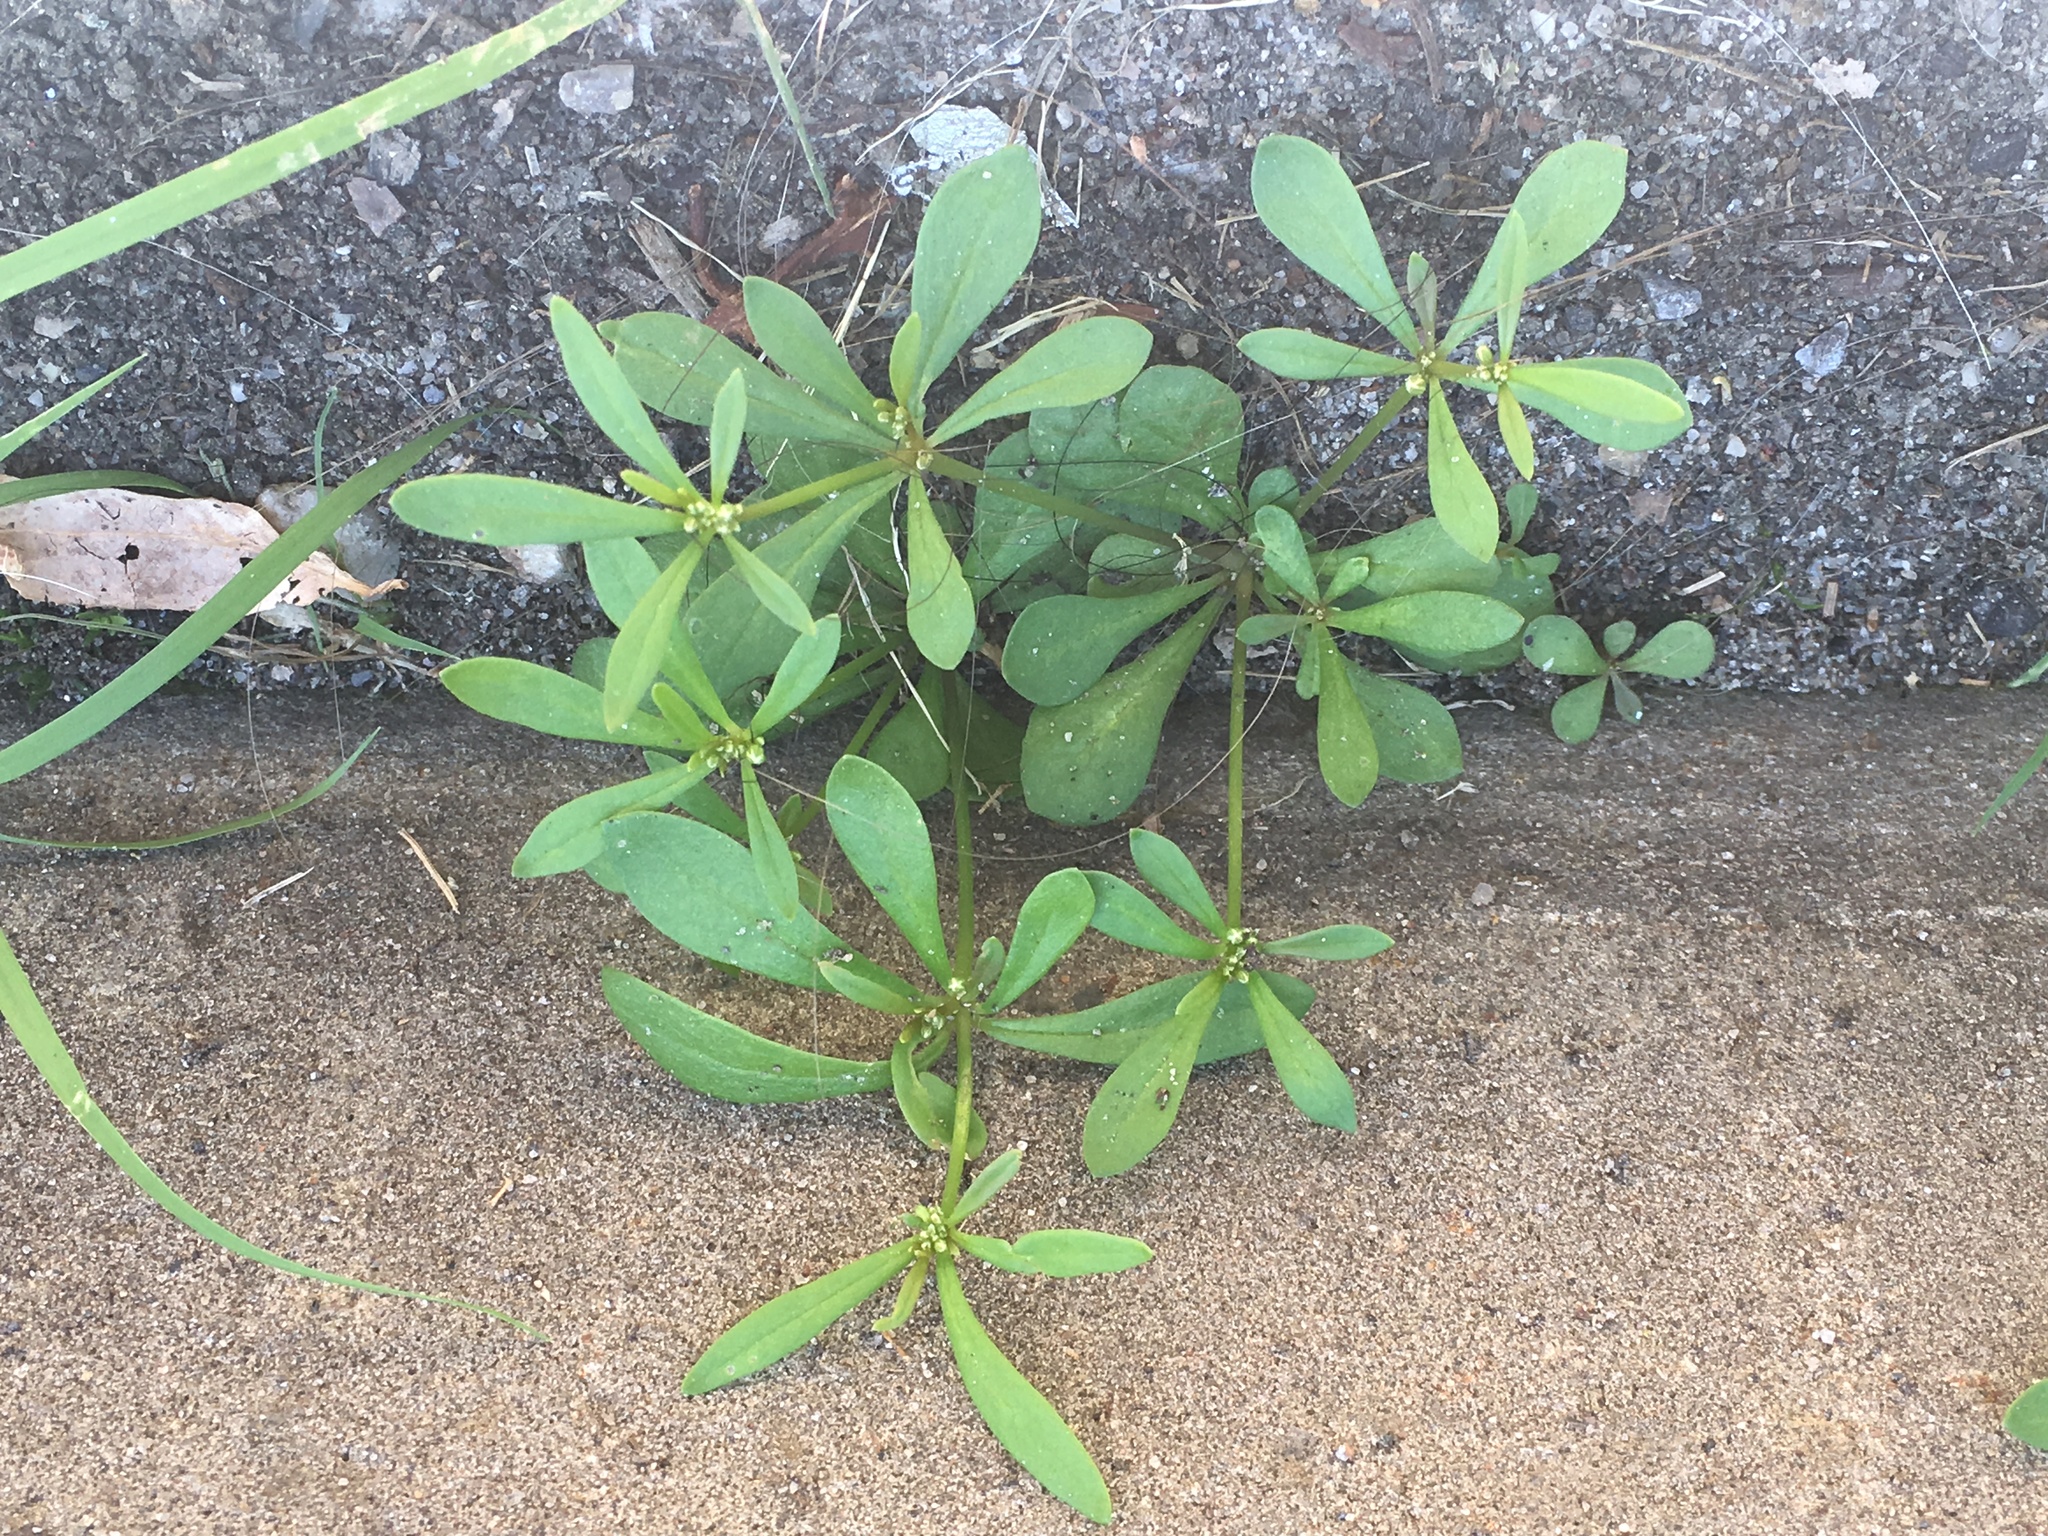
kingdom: Plantae
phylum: Tracheophyta
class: Magnoliopsida
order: Caryophyllales
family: Molluginaceae
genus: Mollugo
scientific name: Mollugo verticillata
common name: Green carpetweed
